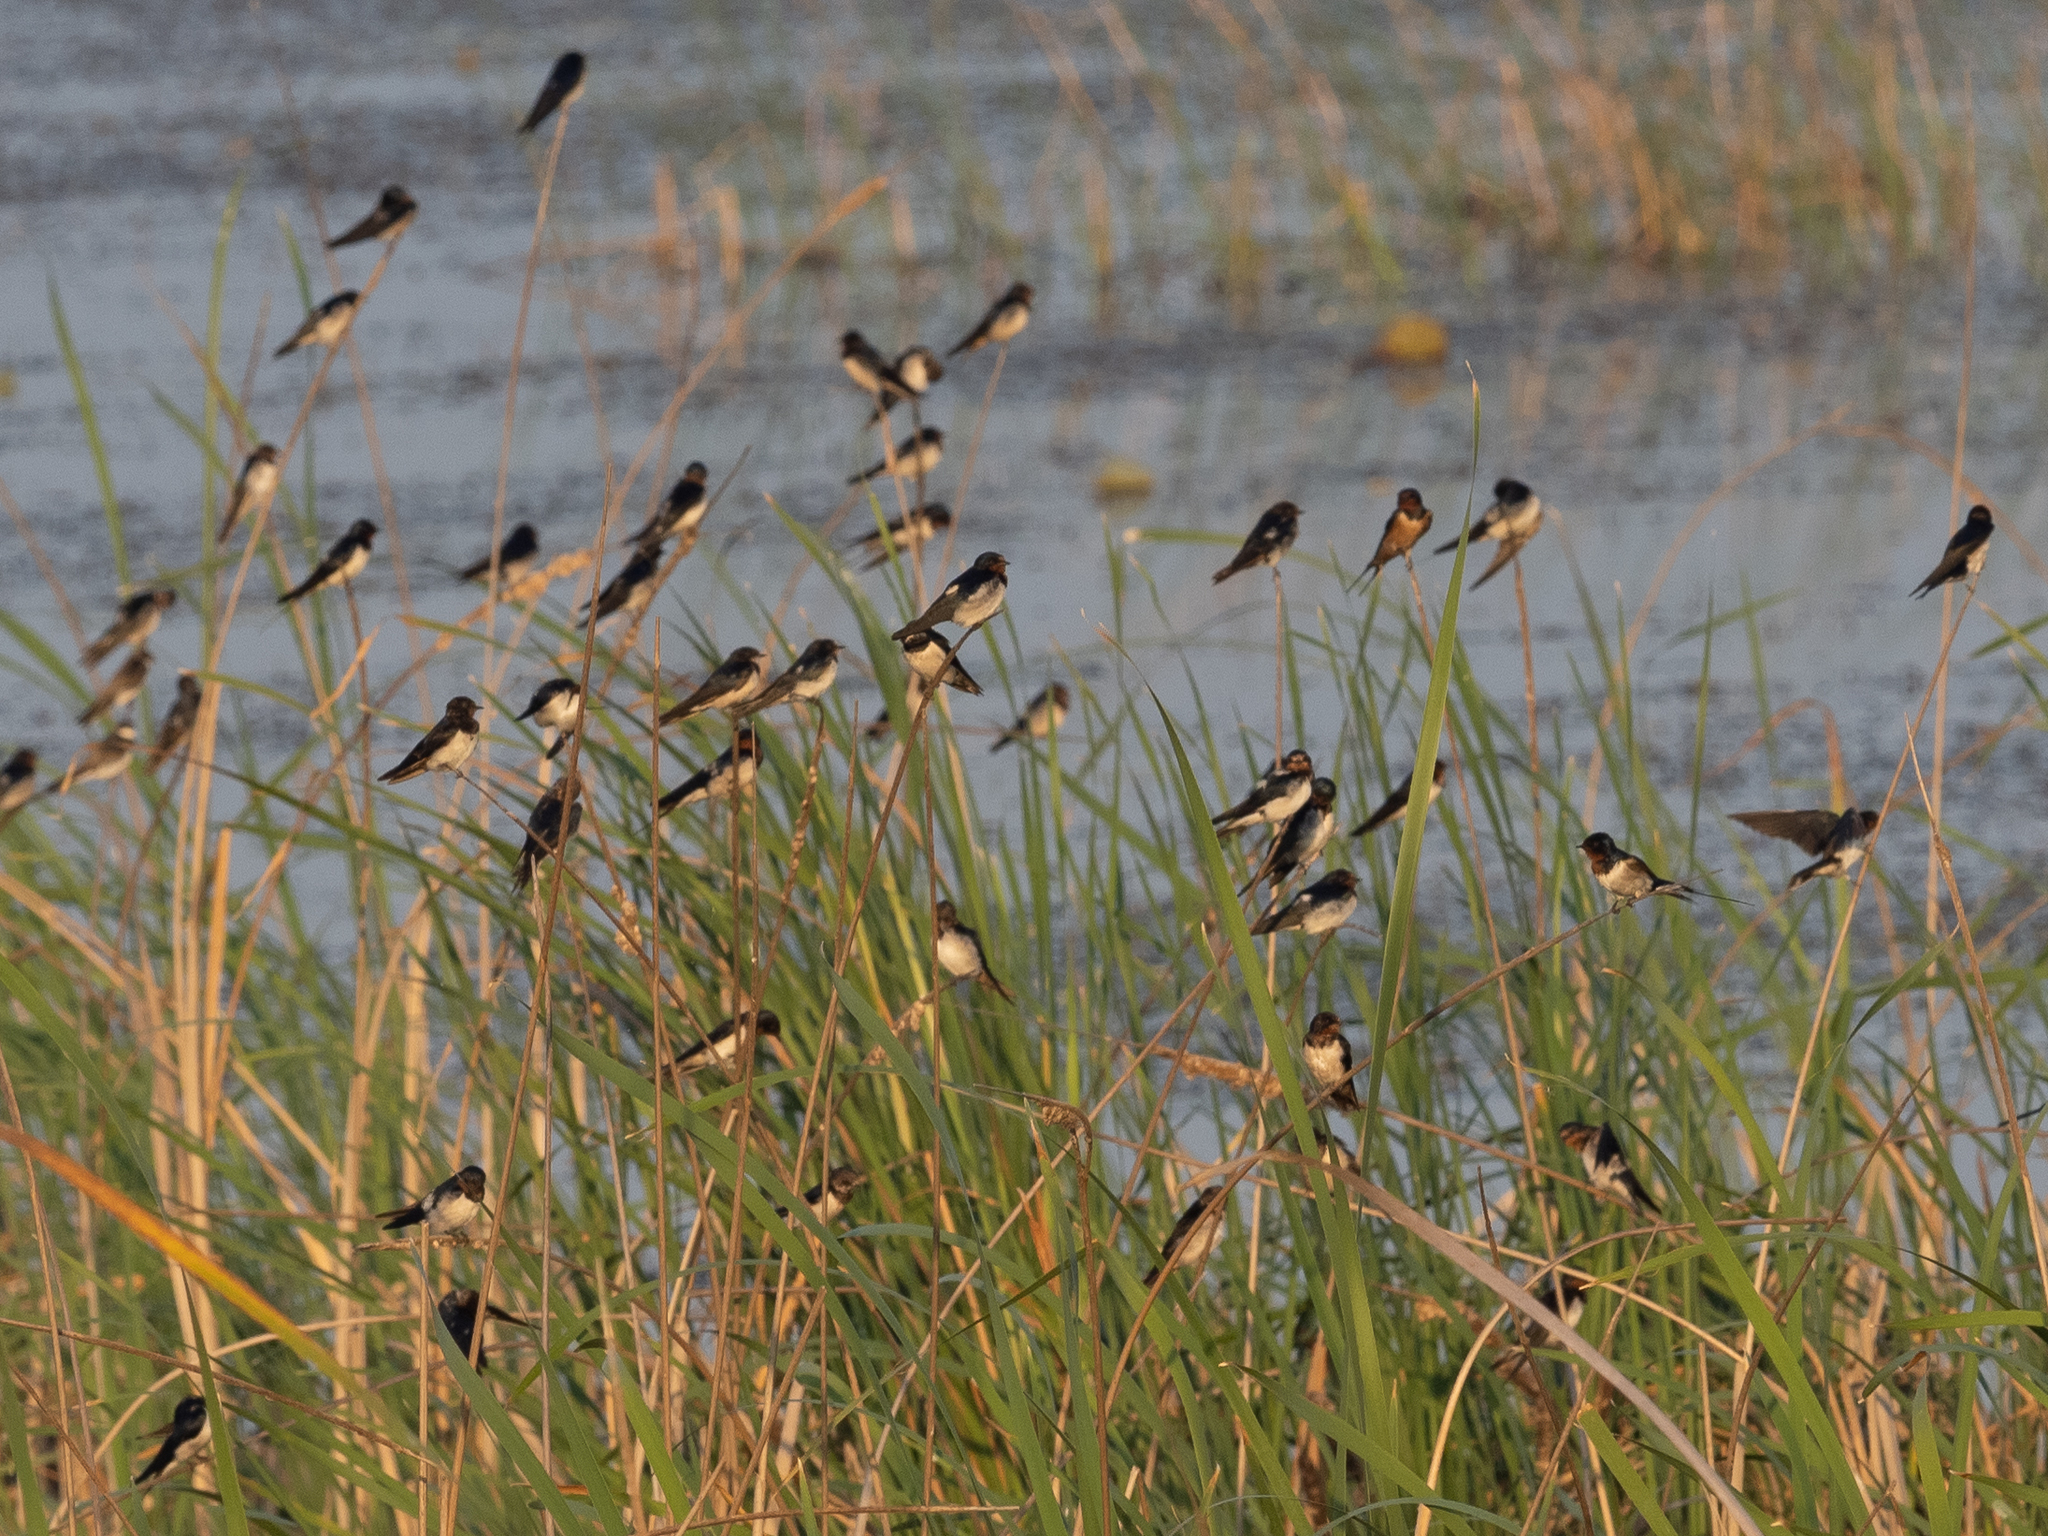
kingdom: Animalia
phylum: Chordata
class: Aves
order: Passeriformes
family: Hirundinidae
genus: Hirundo
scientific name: Hirundo rustica
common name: Barn swallow
